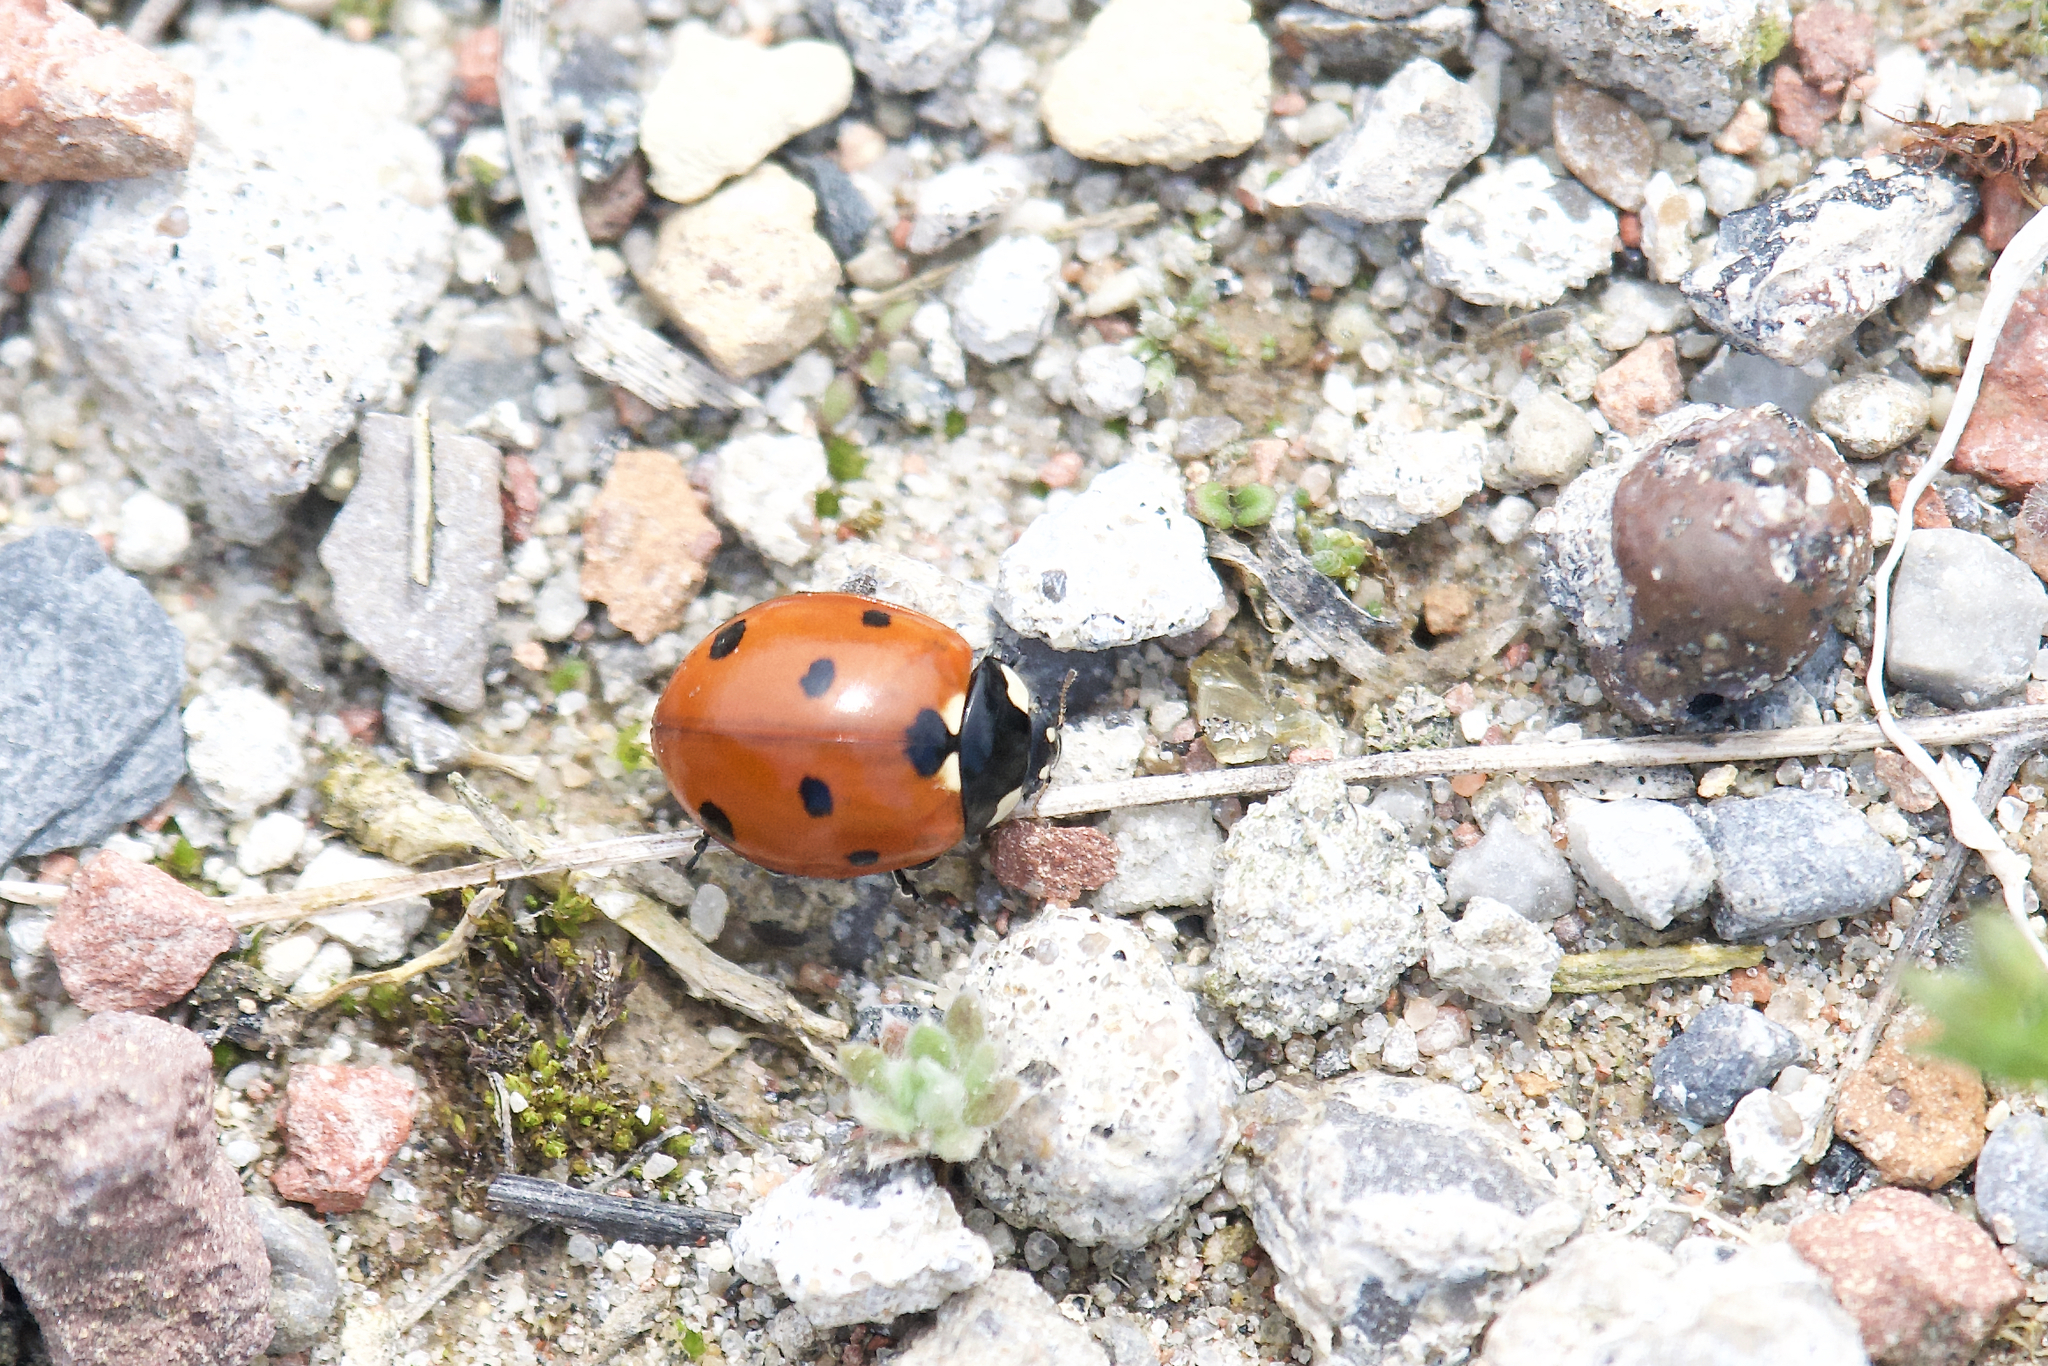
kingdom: Animalia
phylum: Arthropoda
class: Insecta
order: Coleoptera
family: Coccinellidae
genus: Coccinella
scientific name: Coccinella septempunctata
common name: Sevenspotted lady beetle
